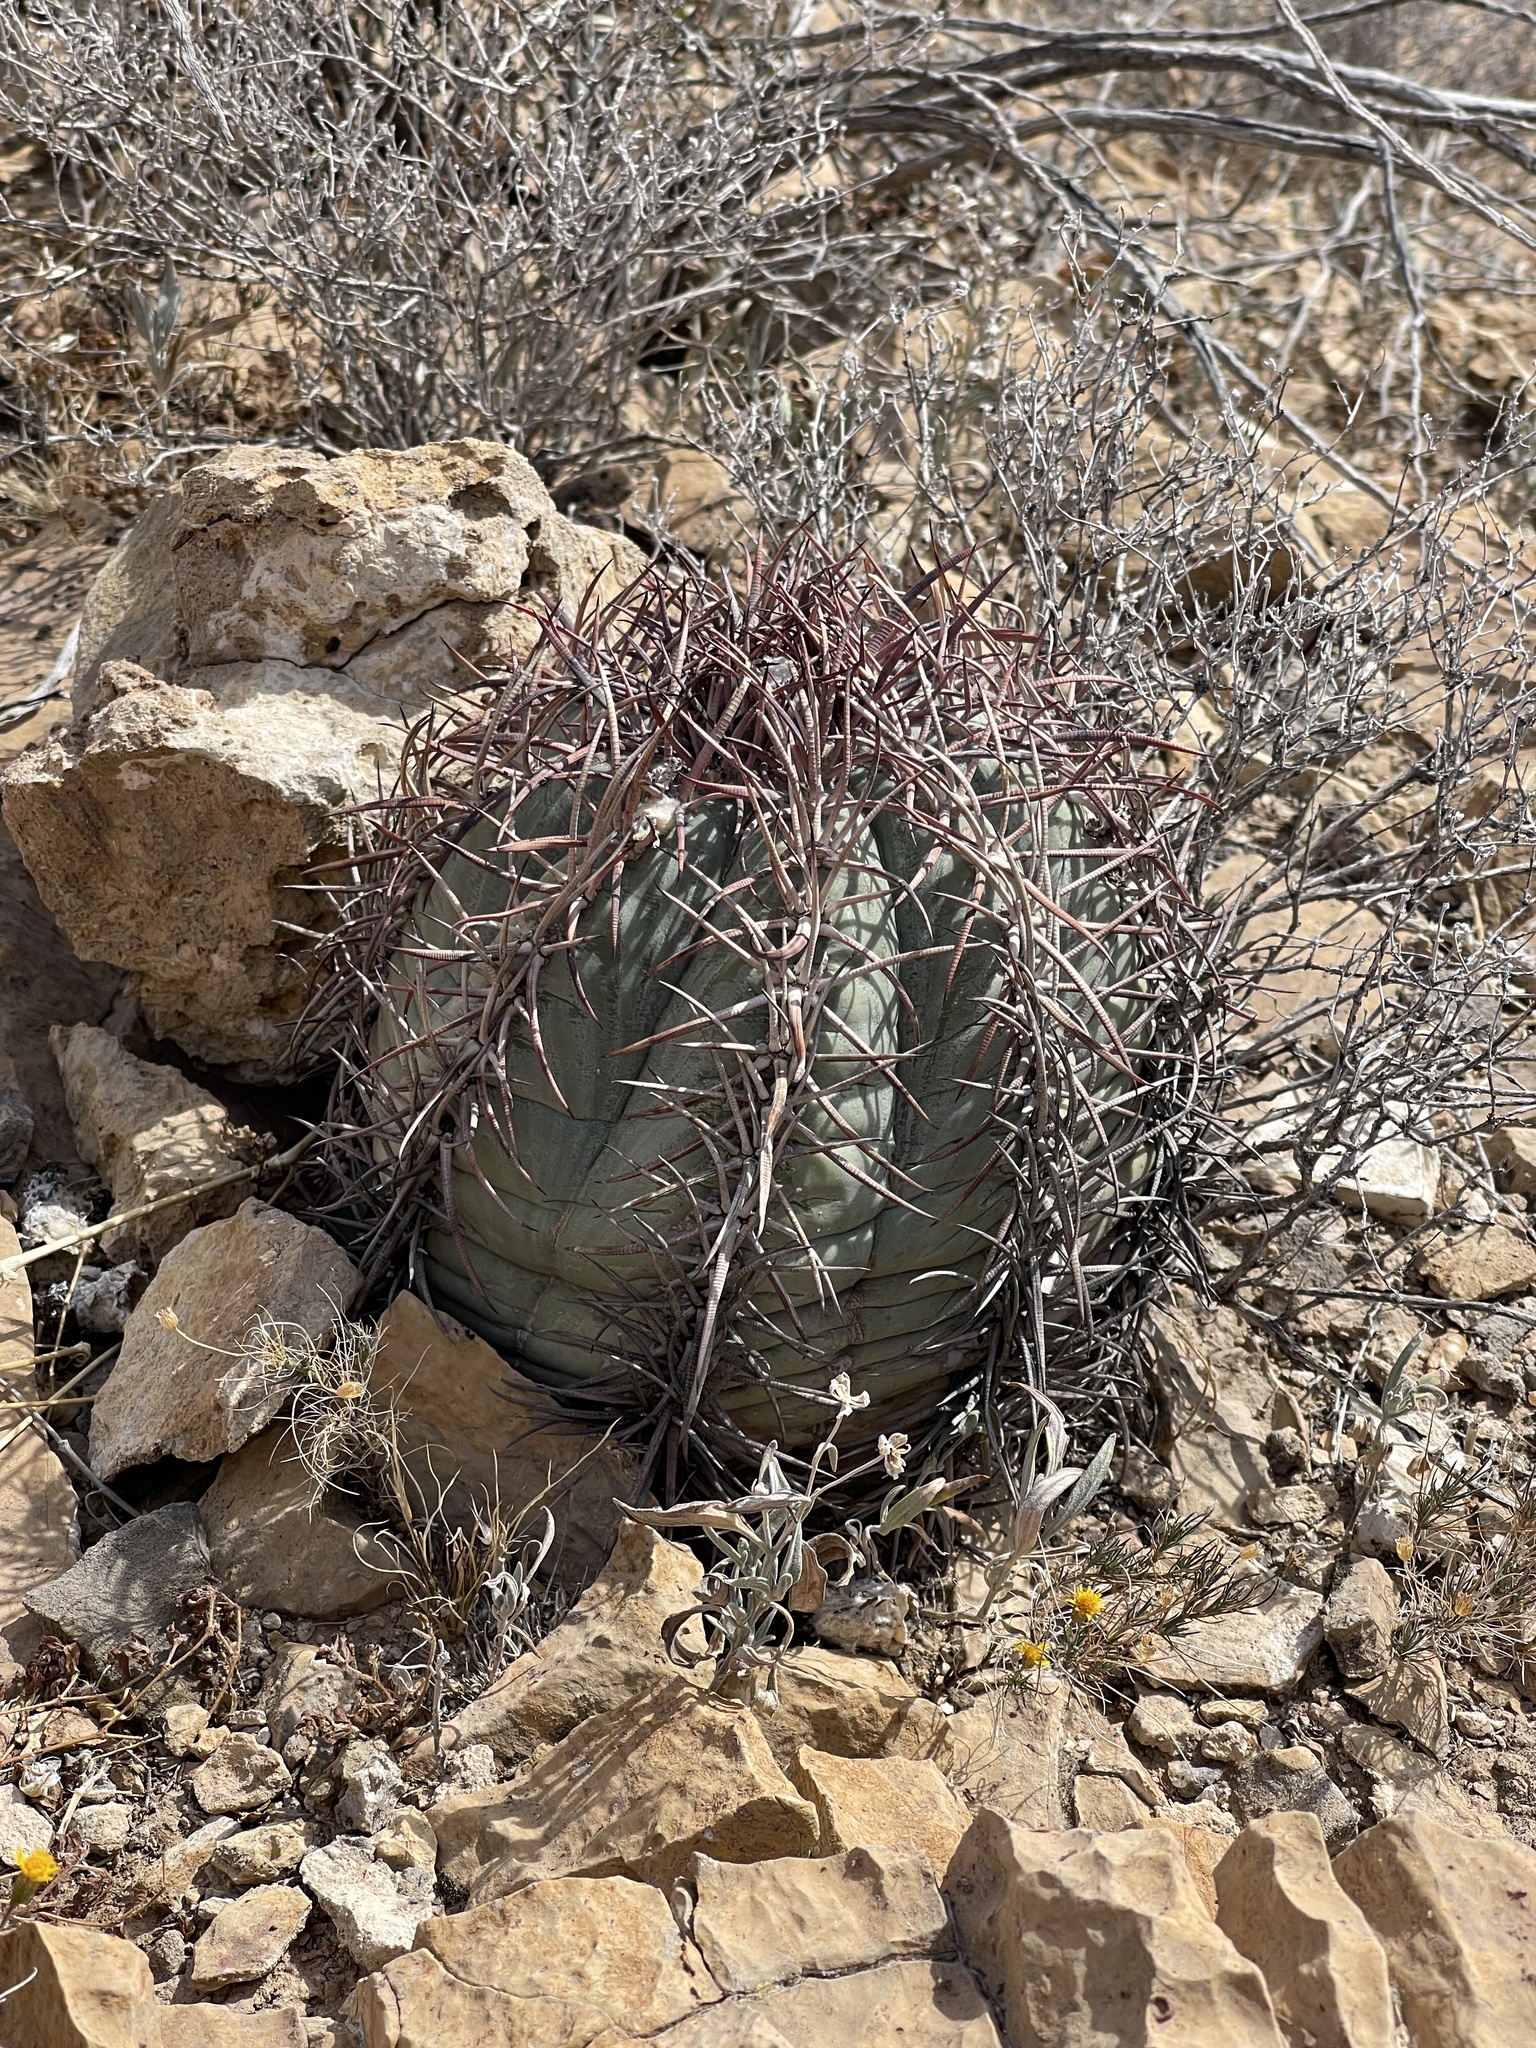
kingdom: Plantae
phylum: Tracheophyta
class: Magnoliopsida
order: Caryophyllales
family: Cactaceae
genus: Echinocactus
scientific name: Echinocactus horizonthalonius
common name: Devilshead
